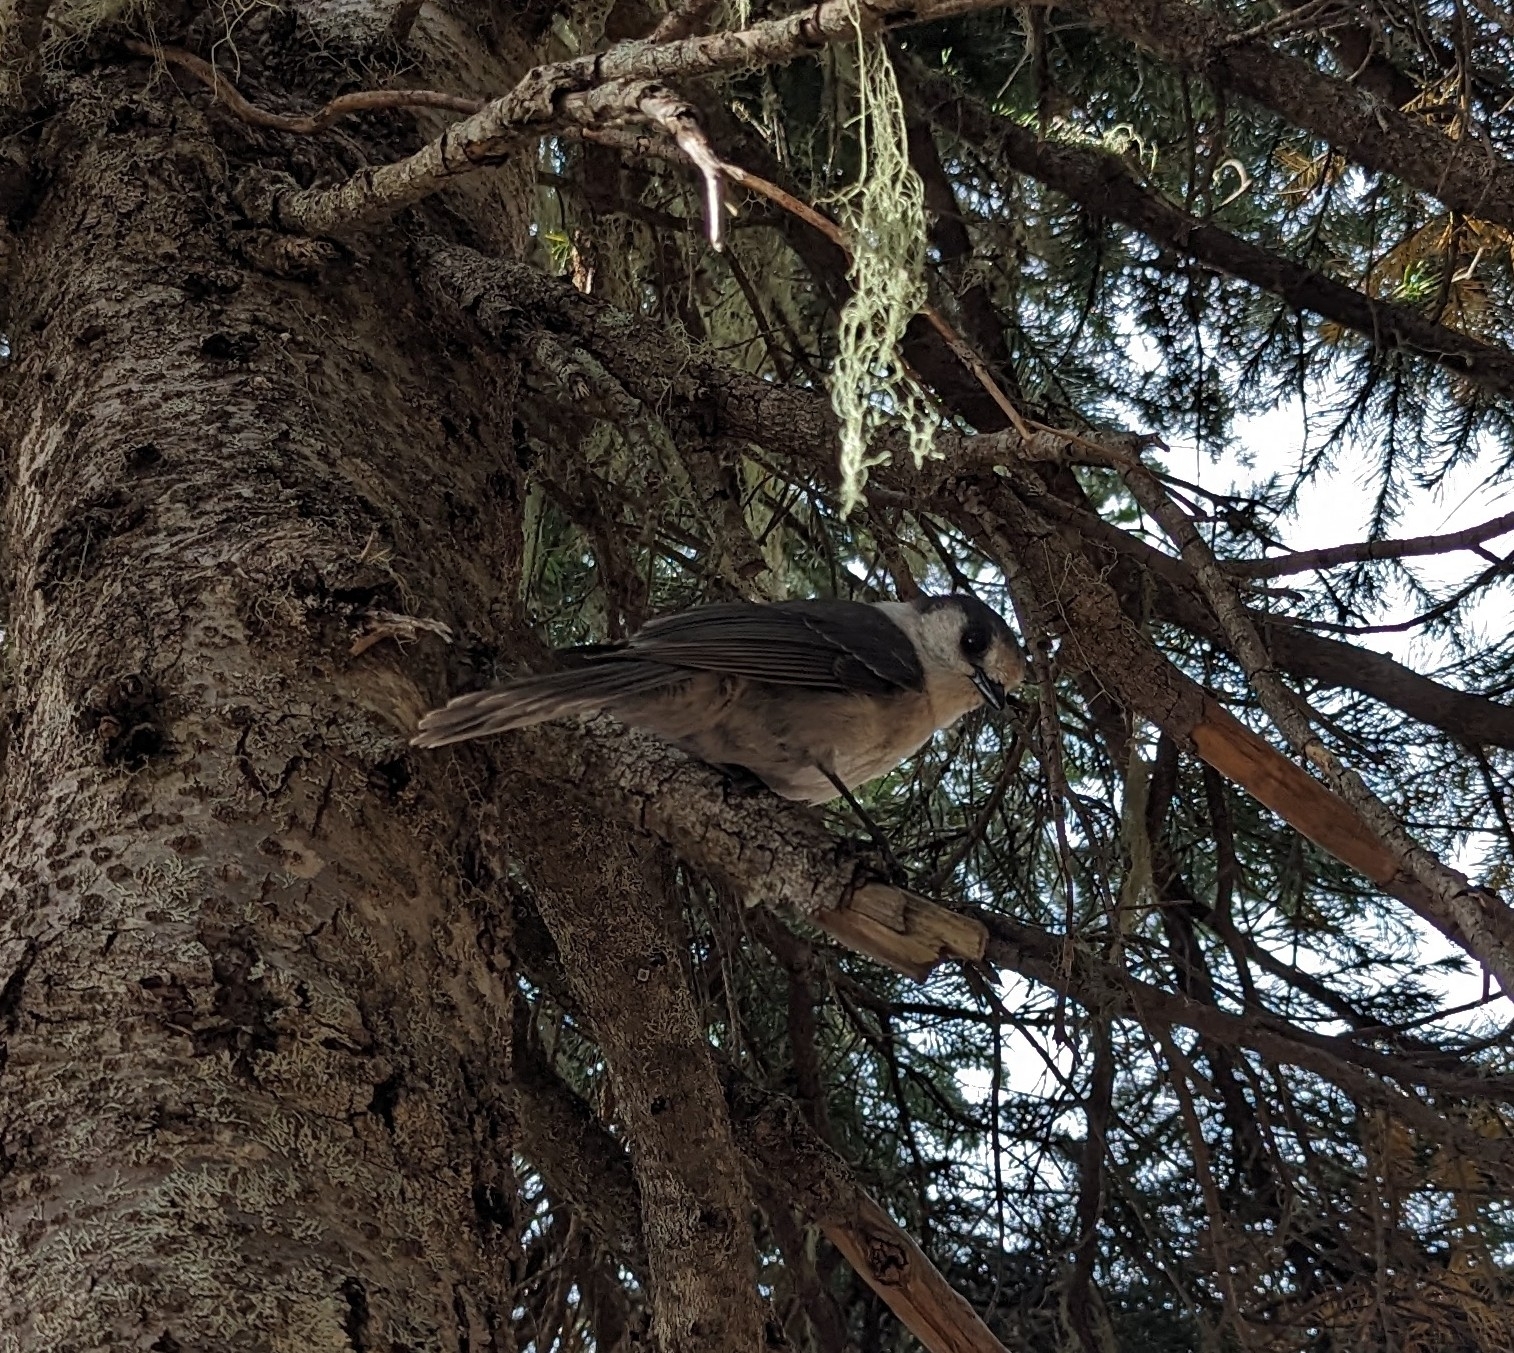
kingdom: Animalia
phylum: Chordata
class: Aves
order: Passeriformes
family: Corvidae
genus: Perisoreus
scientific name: Perisoreus canadensis
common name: Gray jay
